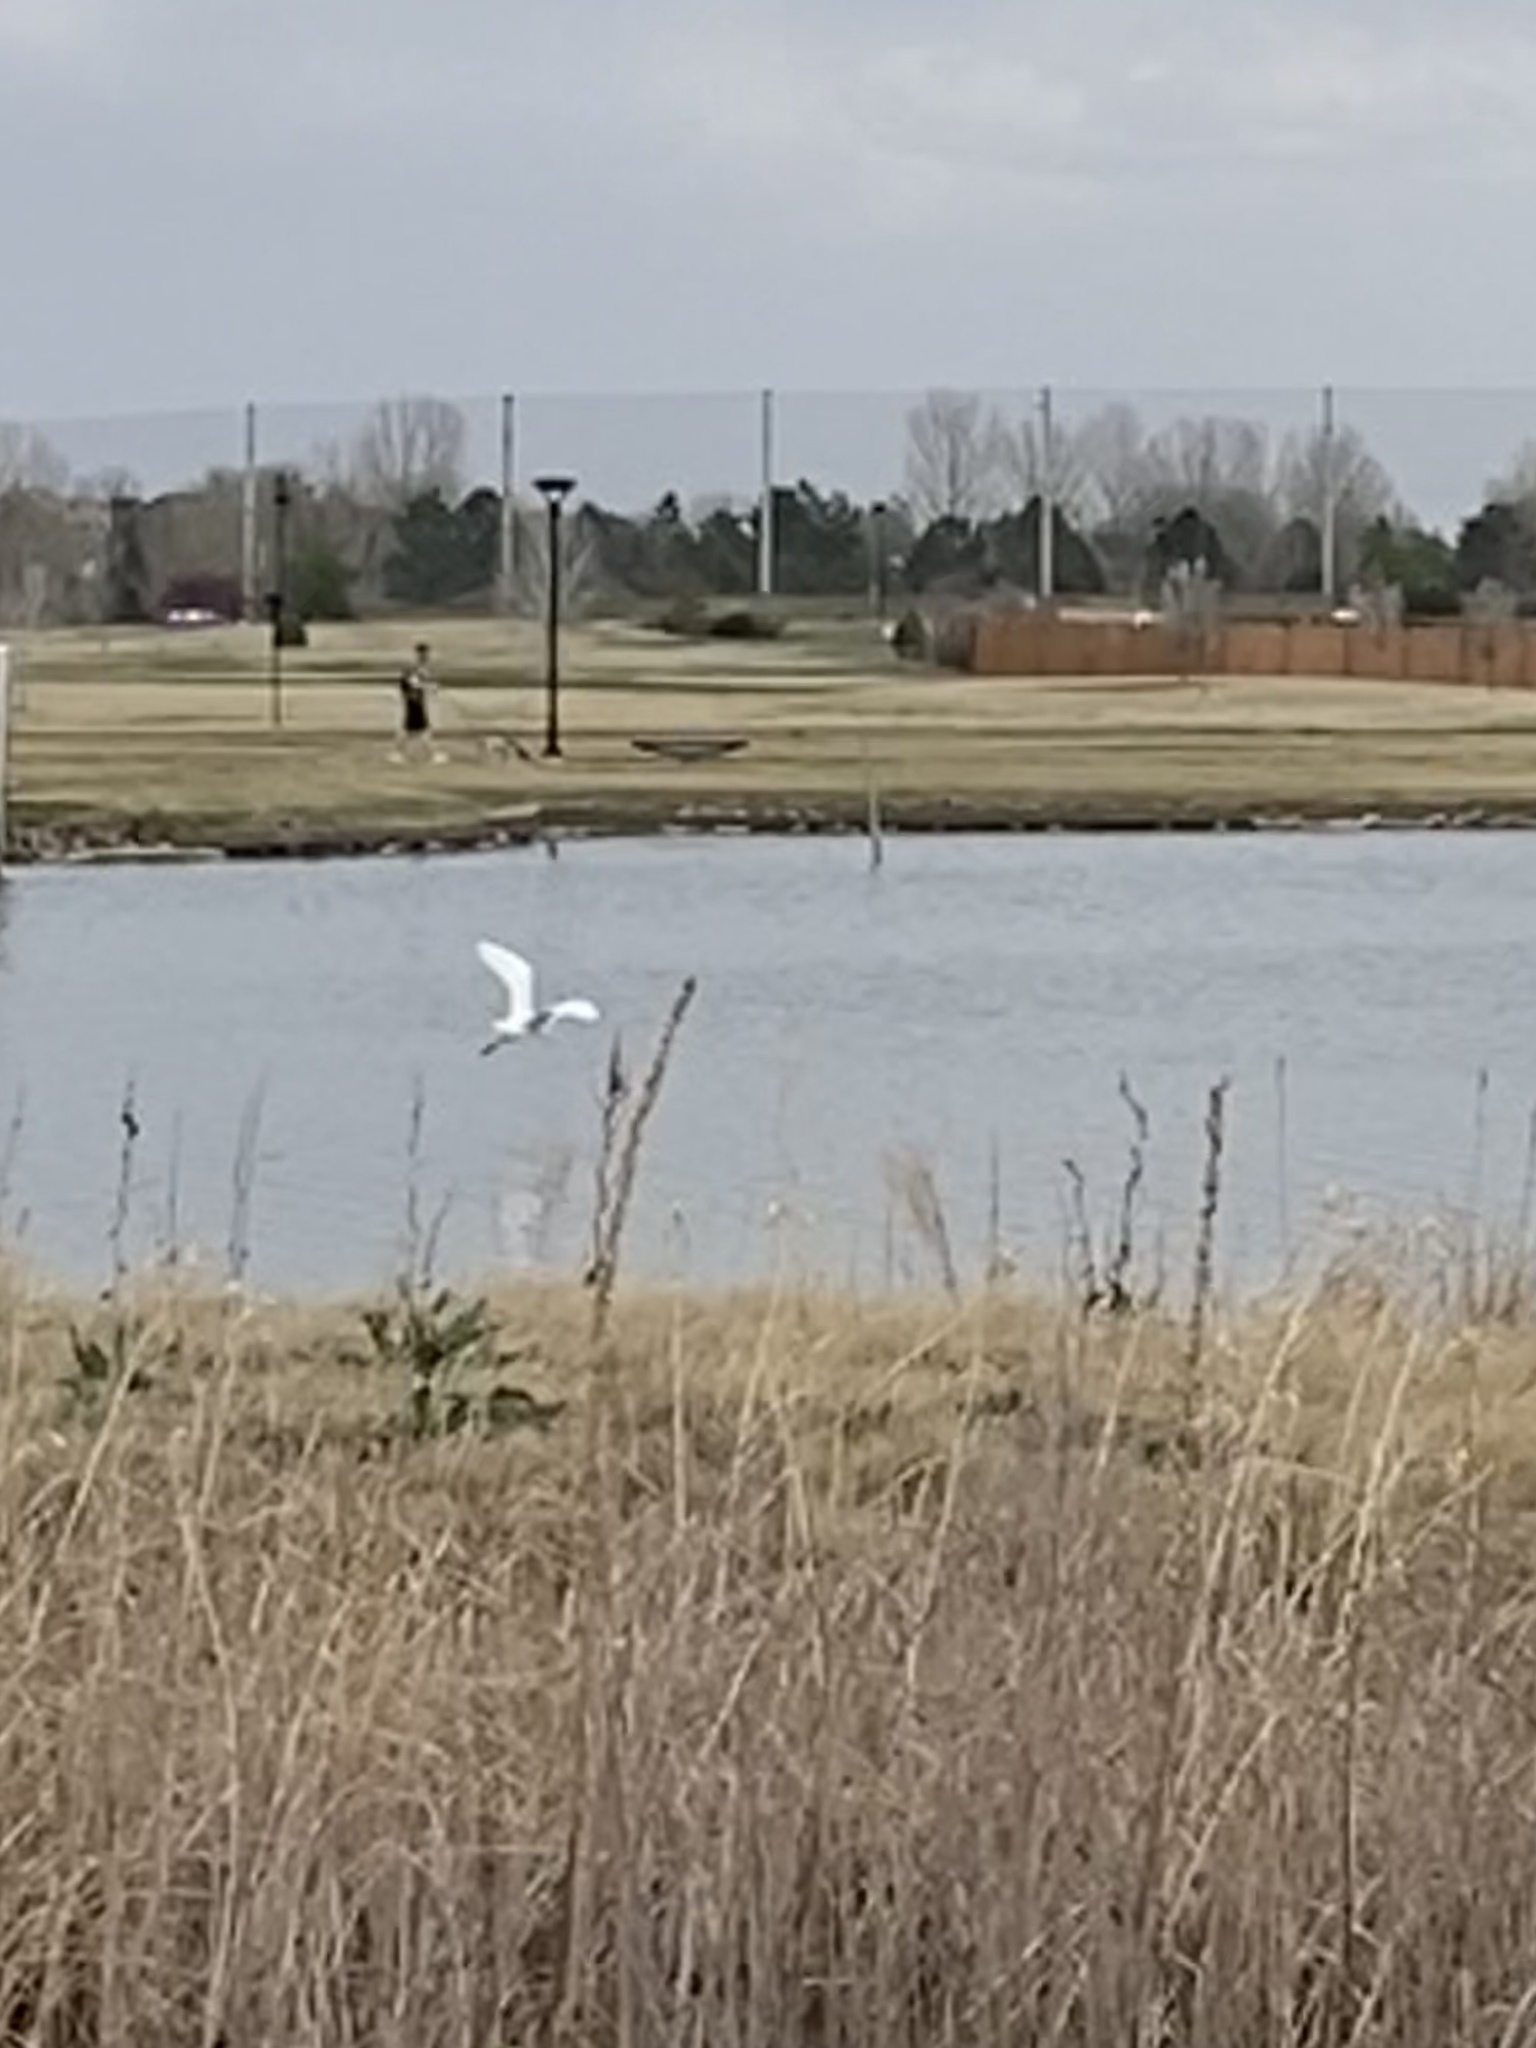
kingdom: Animalia
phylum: Chordata
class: Aves
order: Pelecaniformes
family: Ardeidae
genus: Ardea
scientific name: Ardea alba
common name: Great egret
